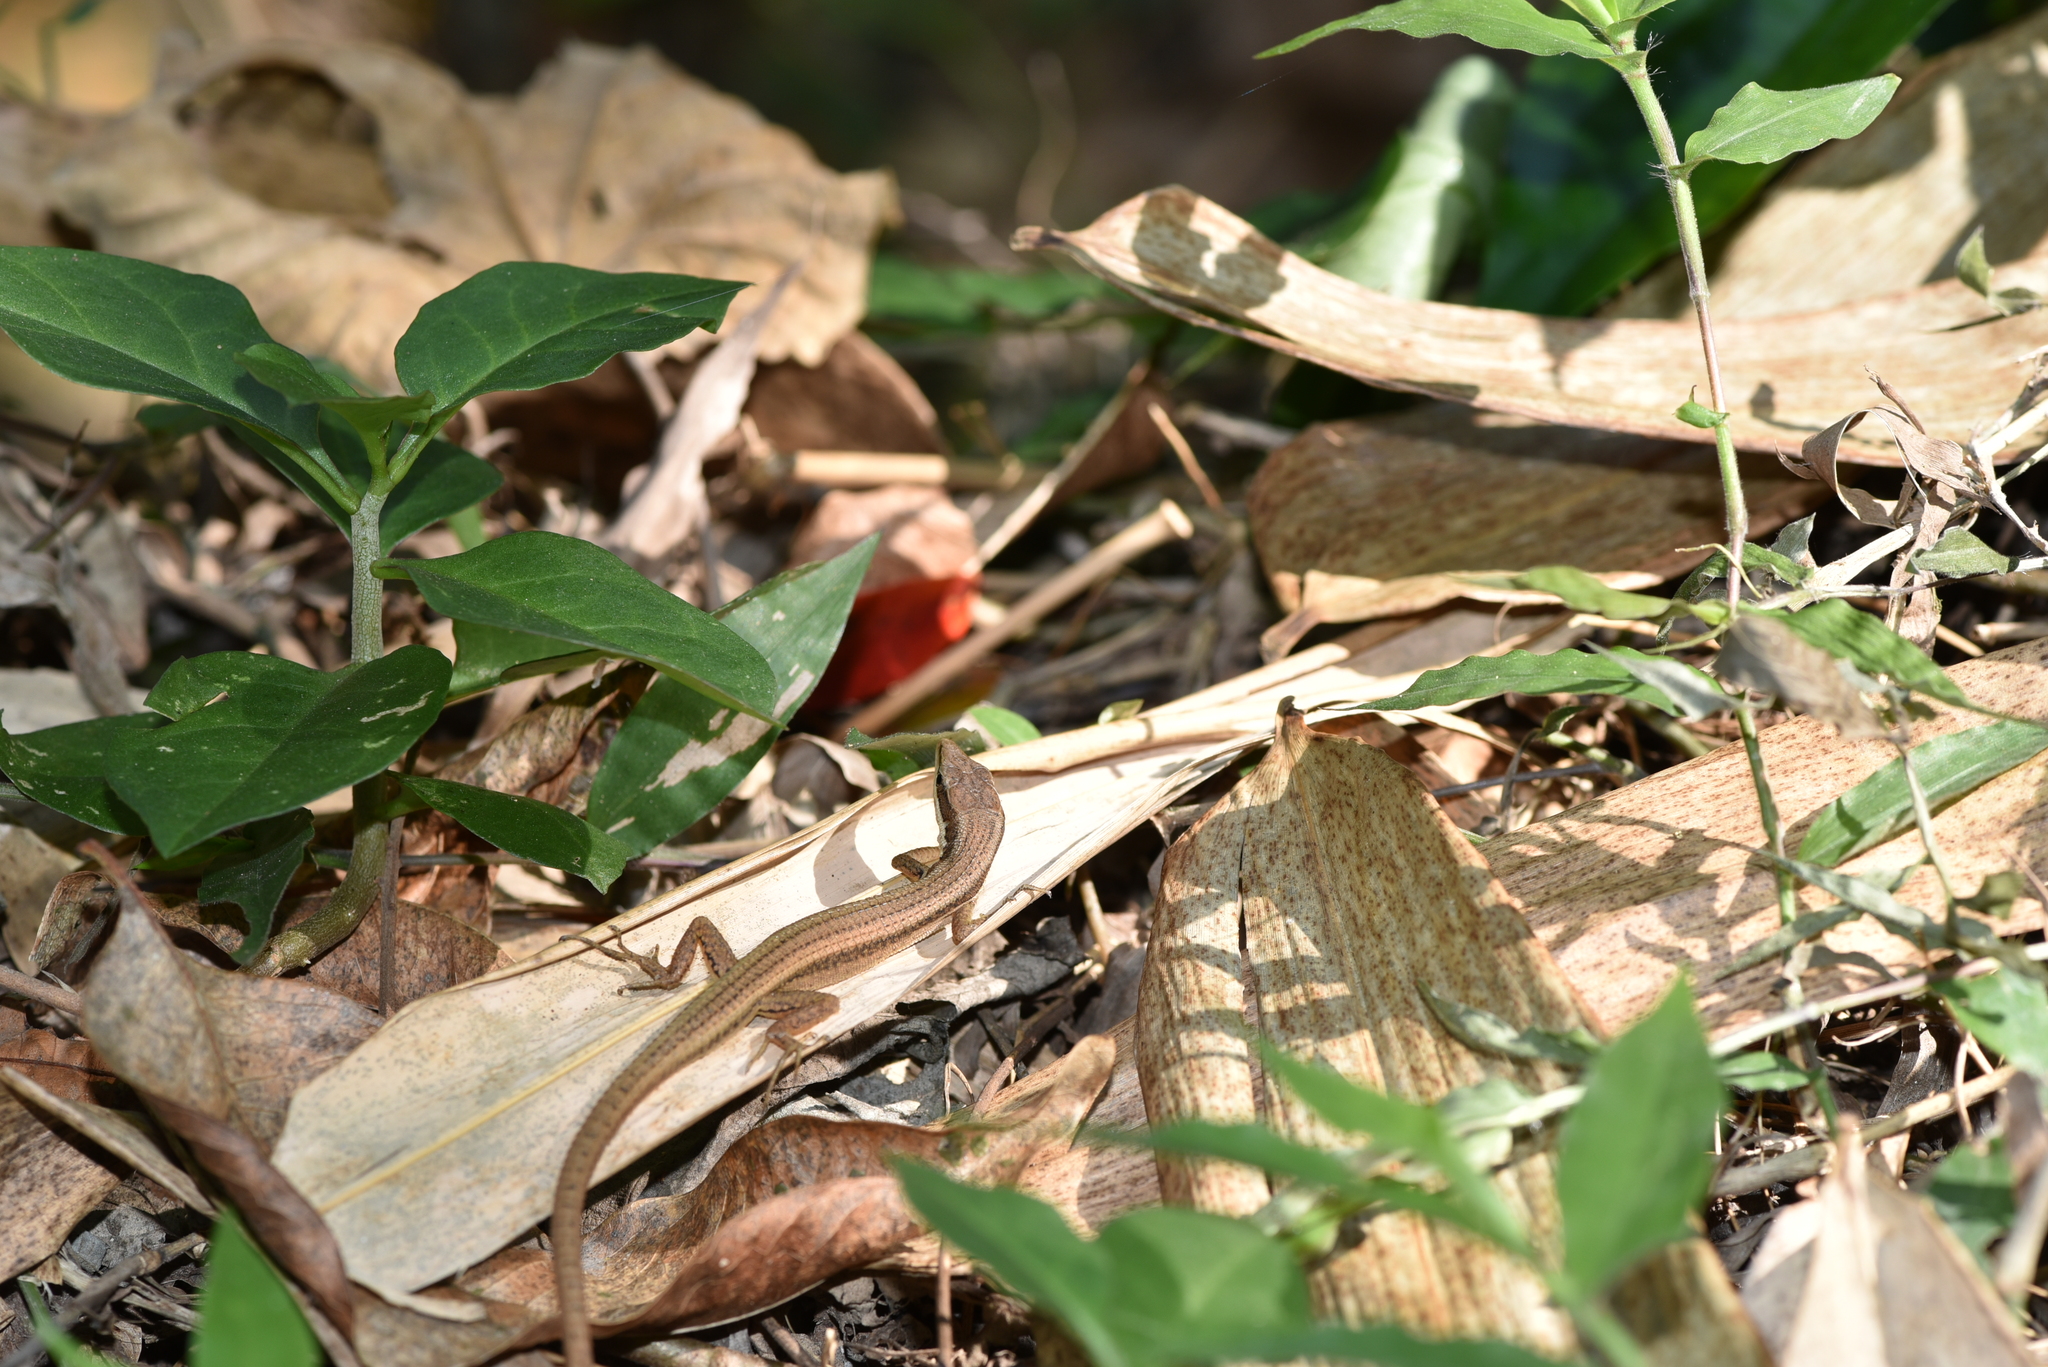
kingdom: Animalia
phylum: Chordata
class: Squamata
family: Lacertidae
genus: Takydromus
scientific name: Takydromus kuehnei
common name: Kuhne’s grass lizard
